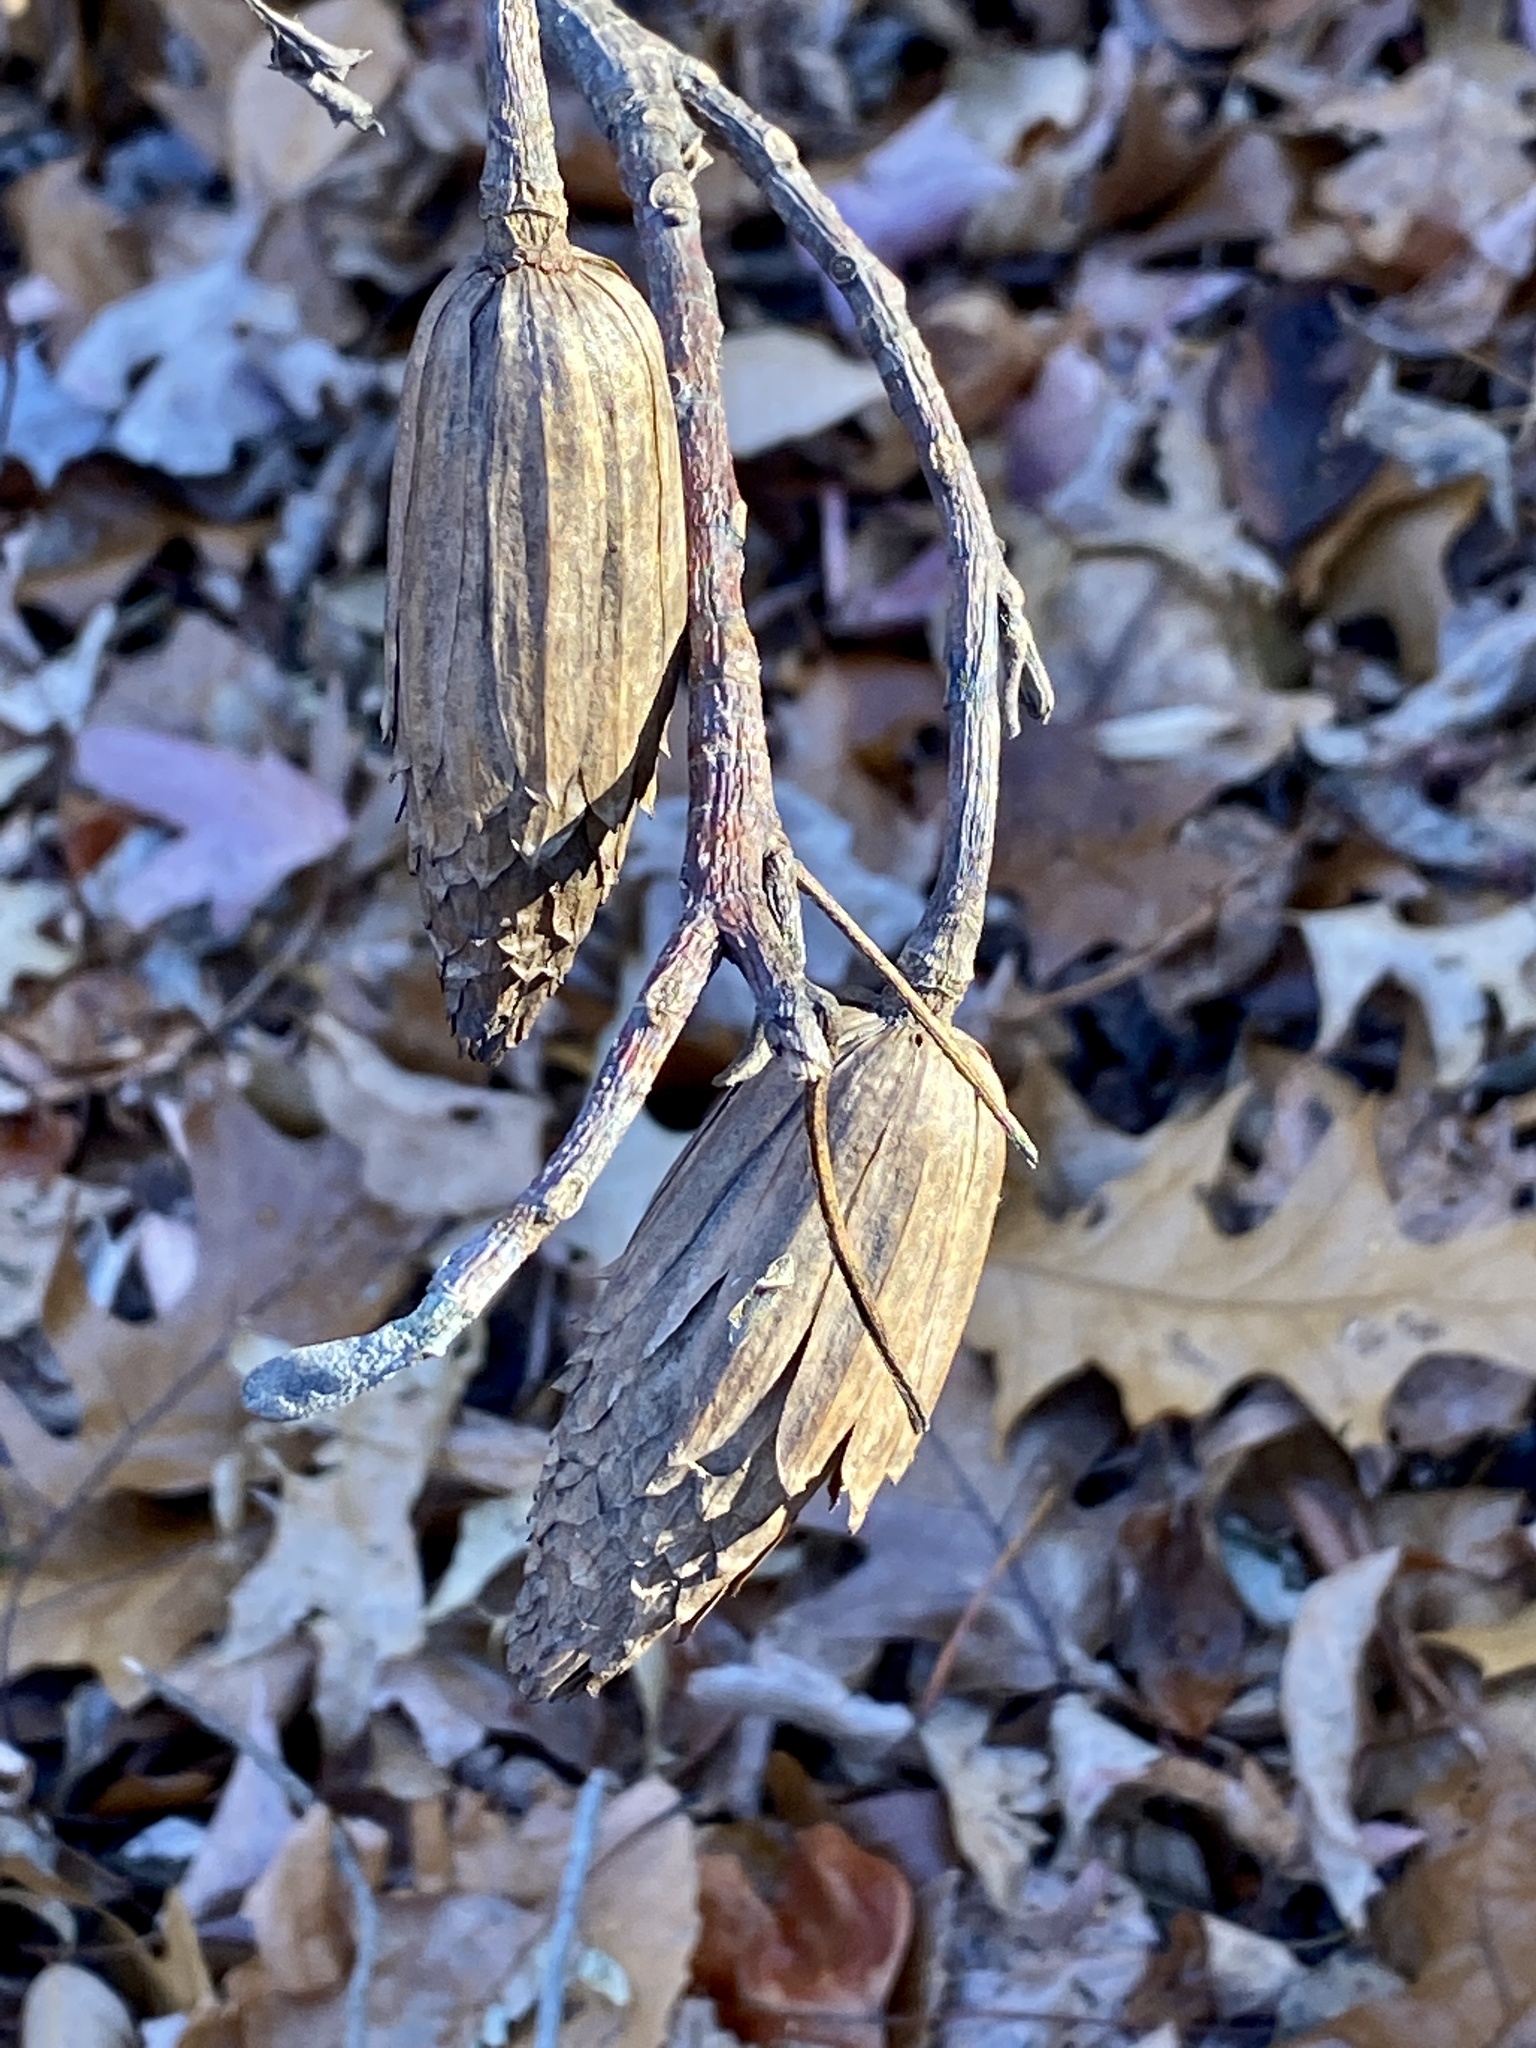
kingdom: Plantae
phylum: Tracheophyta
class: Magnoliopsida
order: Magnoliales
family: Magnoliaceae
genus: Liriodendron
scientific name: Liriodendron tulipifera
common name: Tulip tree
